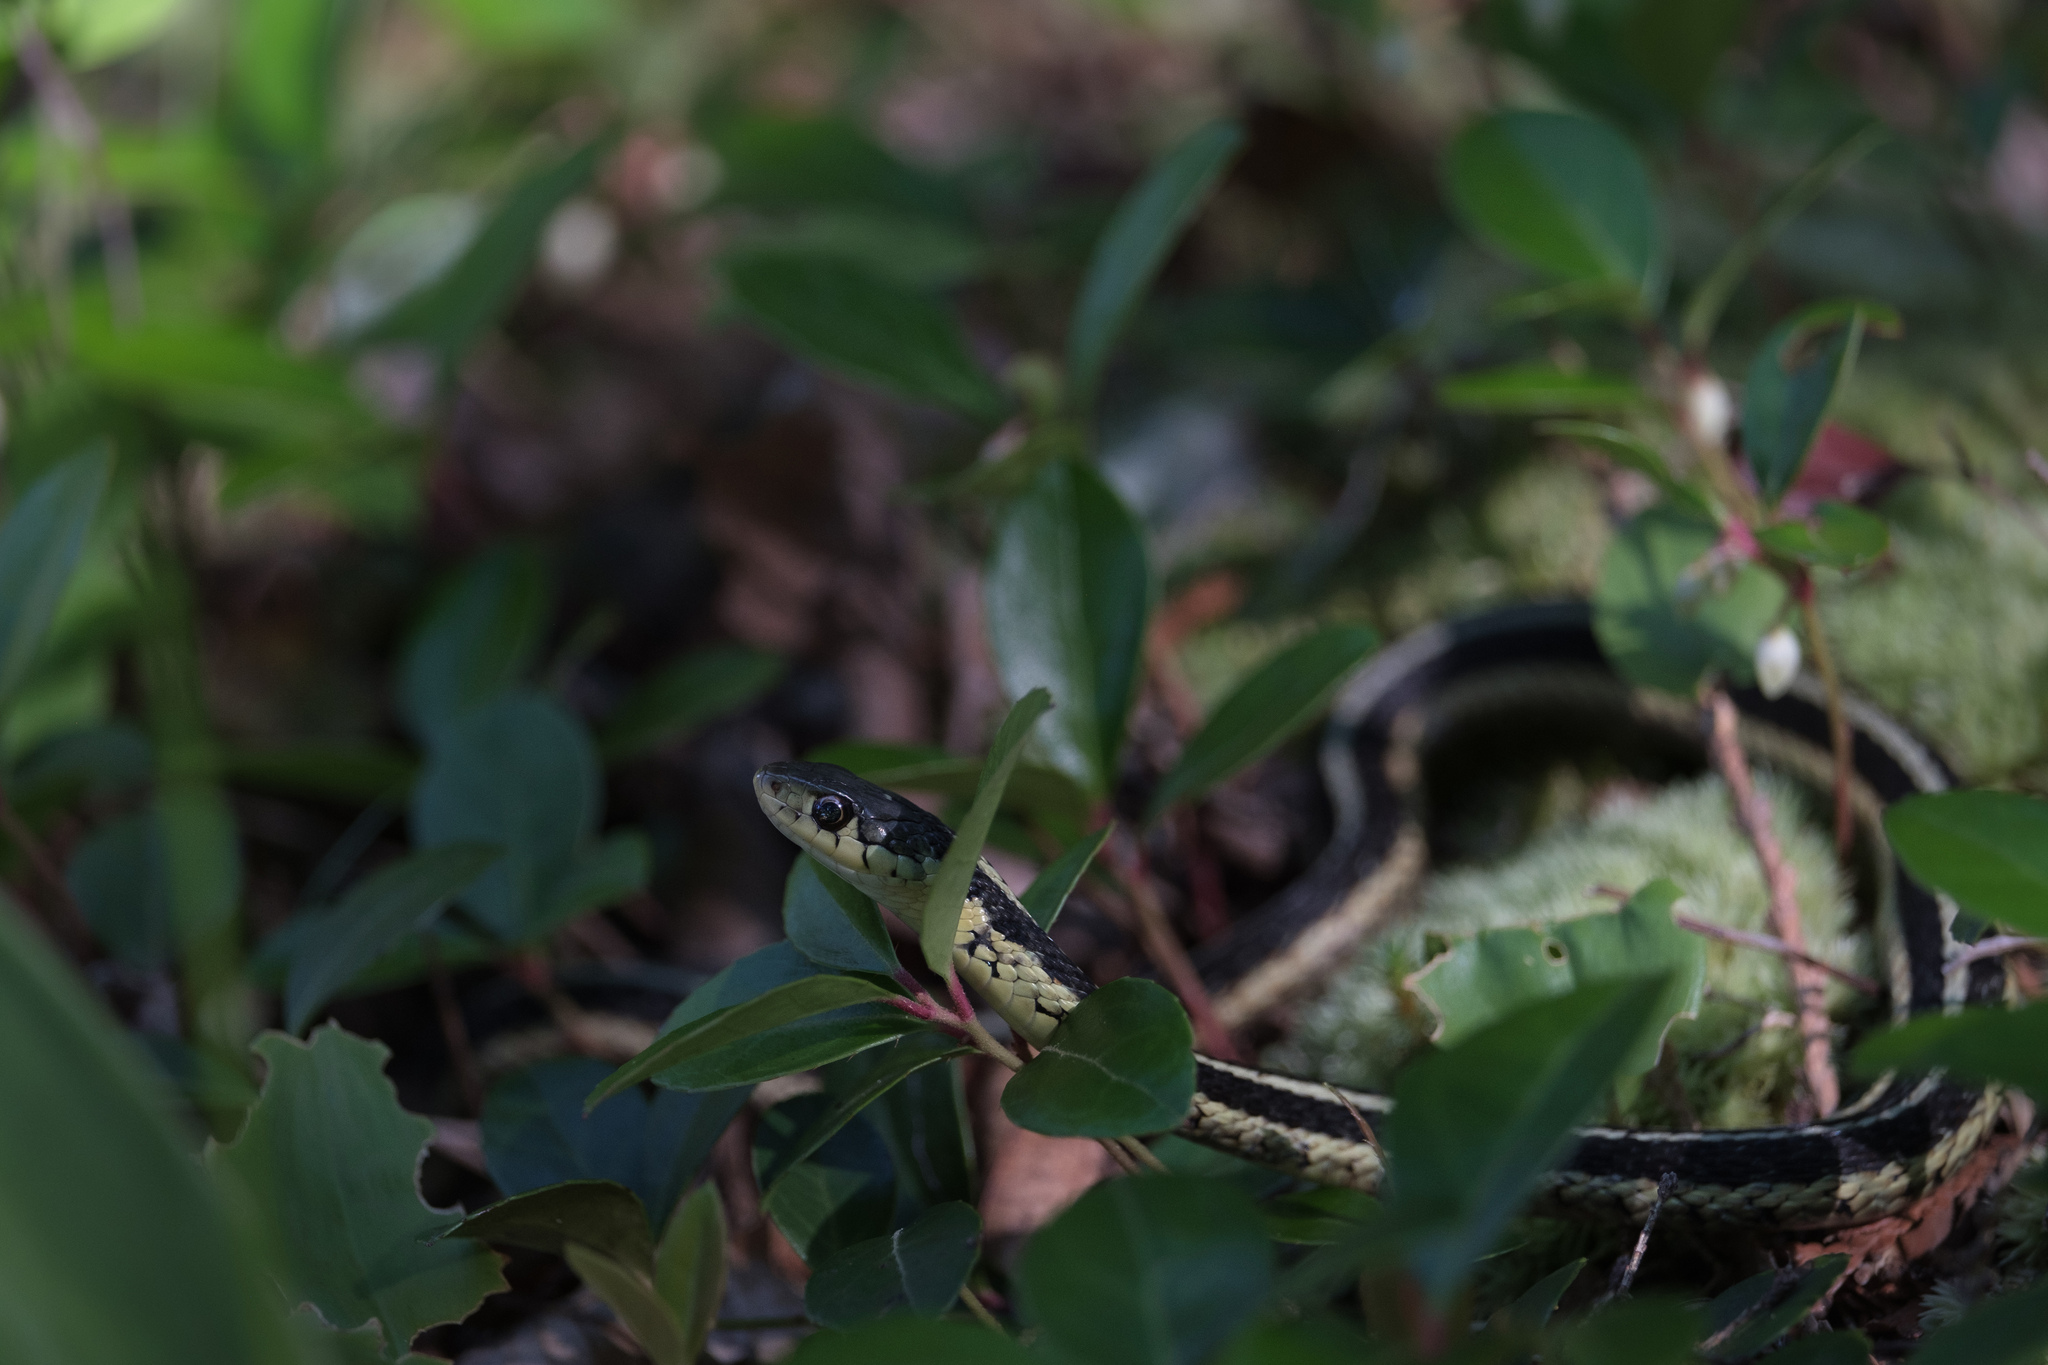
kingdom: Animalia
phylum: Chordata
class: Squamata
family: Colubridae
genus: Thamnophis
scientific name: Thamnophis sirtalis
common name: Common garter snake
